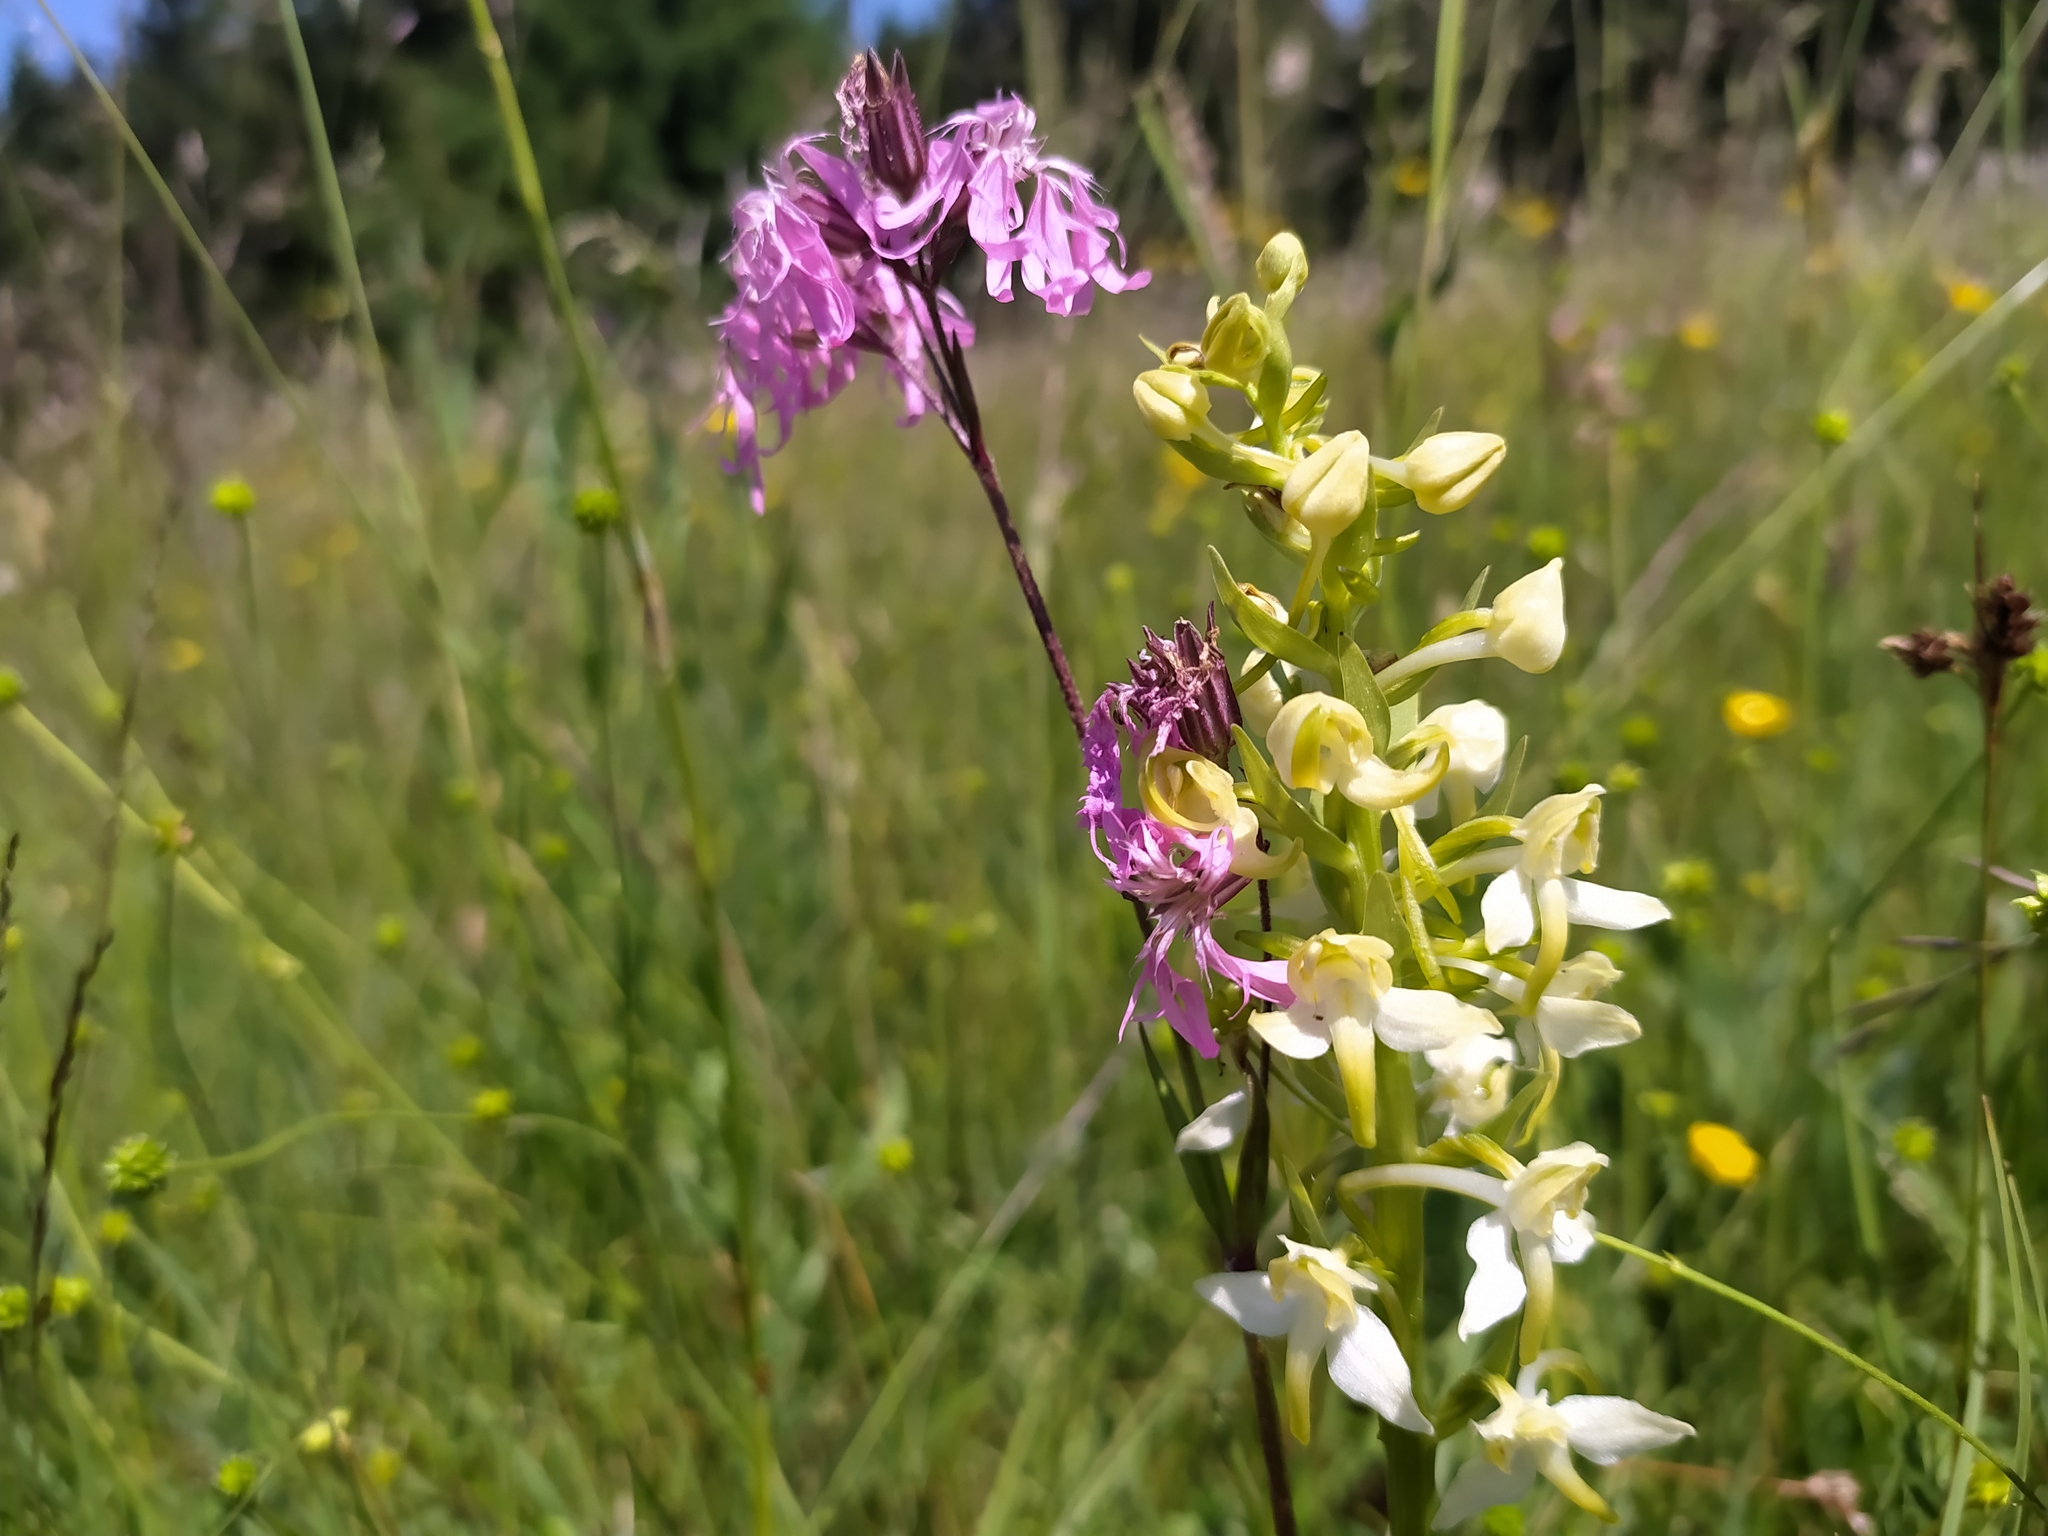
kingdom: Plantae
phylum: Tracheophyta
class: Liliopsida
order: Asparagales
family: Orchidaceae
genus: Platanthera
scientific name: Platanthera chlorantha
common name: Greater butterfly-orchid
